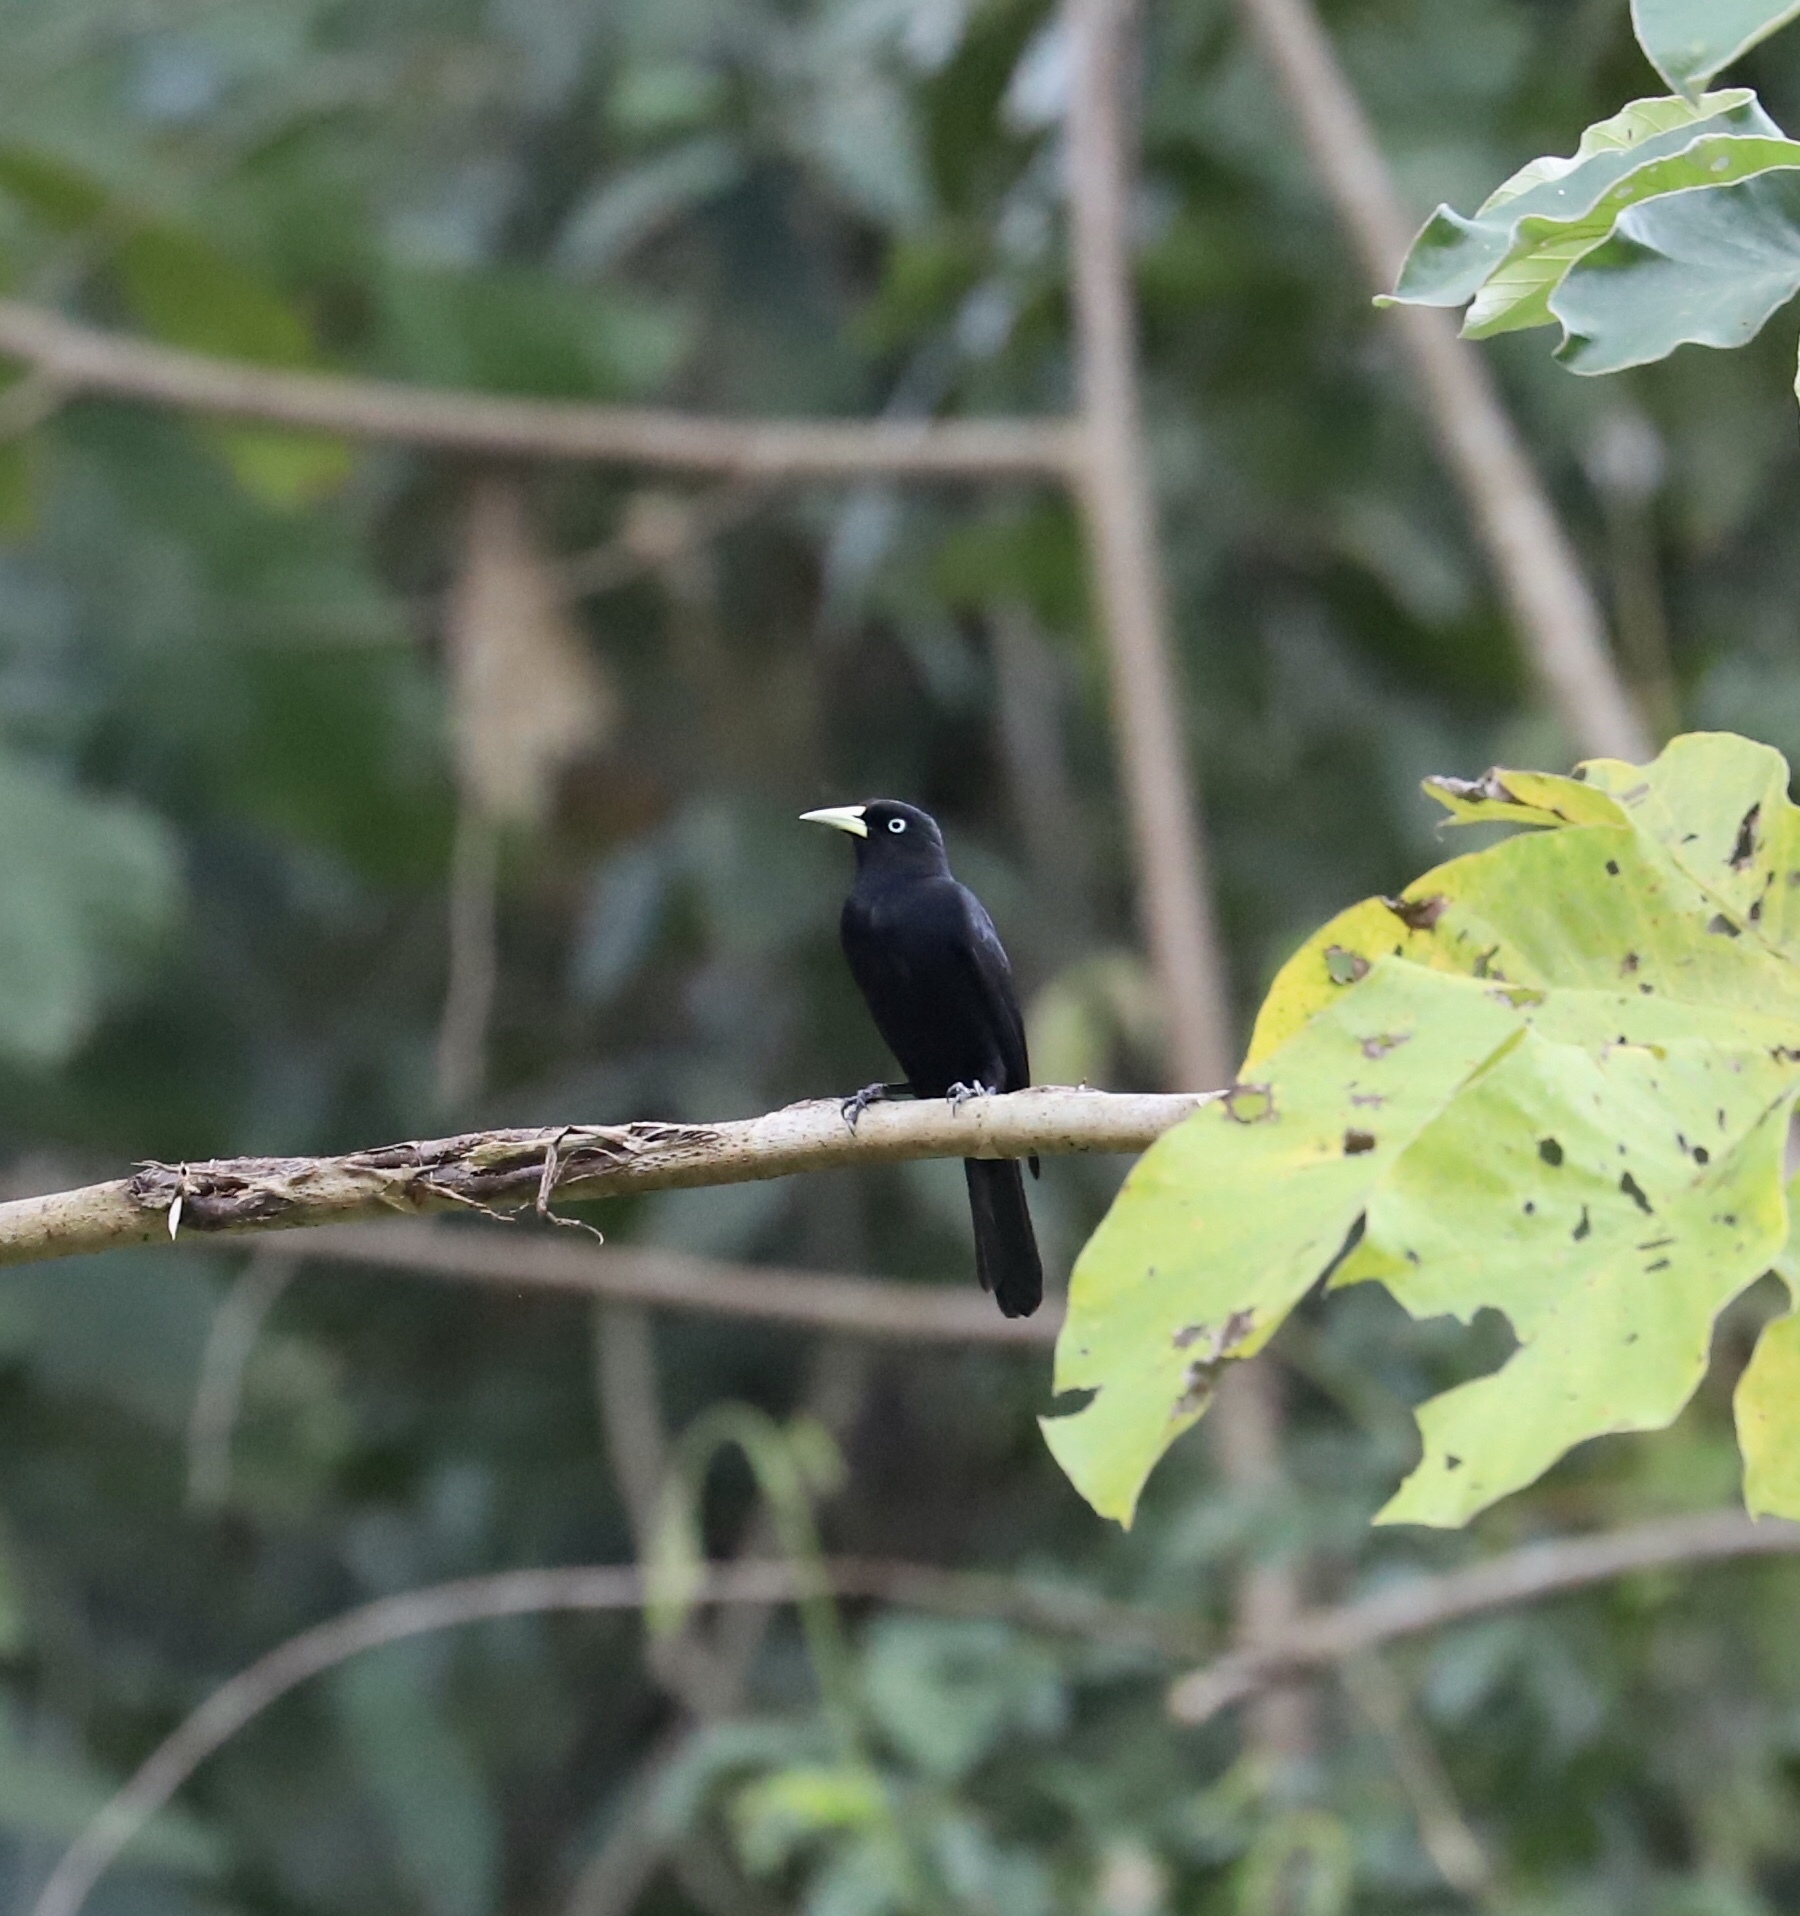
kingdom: Animalia
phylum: Chordata
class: Aves
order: Passeriformes
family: Icteridae
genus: Cacicus
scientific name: Cacicus uropygialis
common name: Scarlet-rumped cacique
